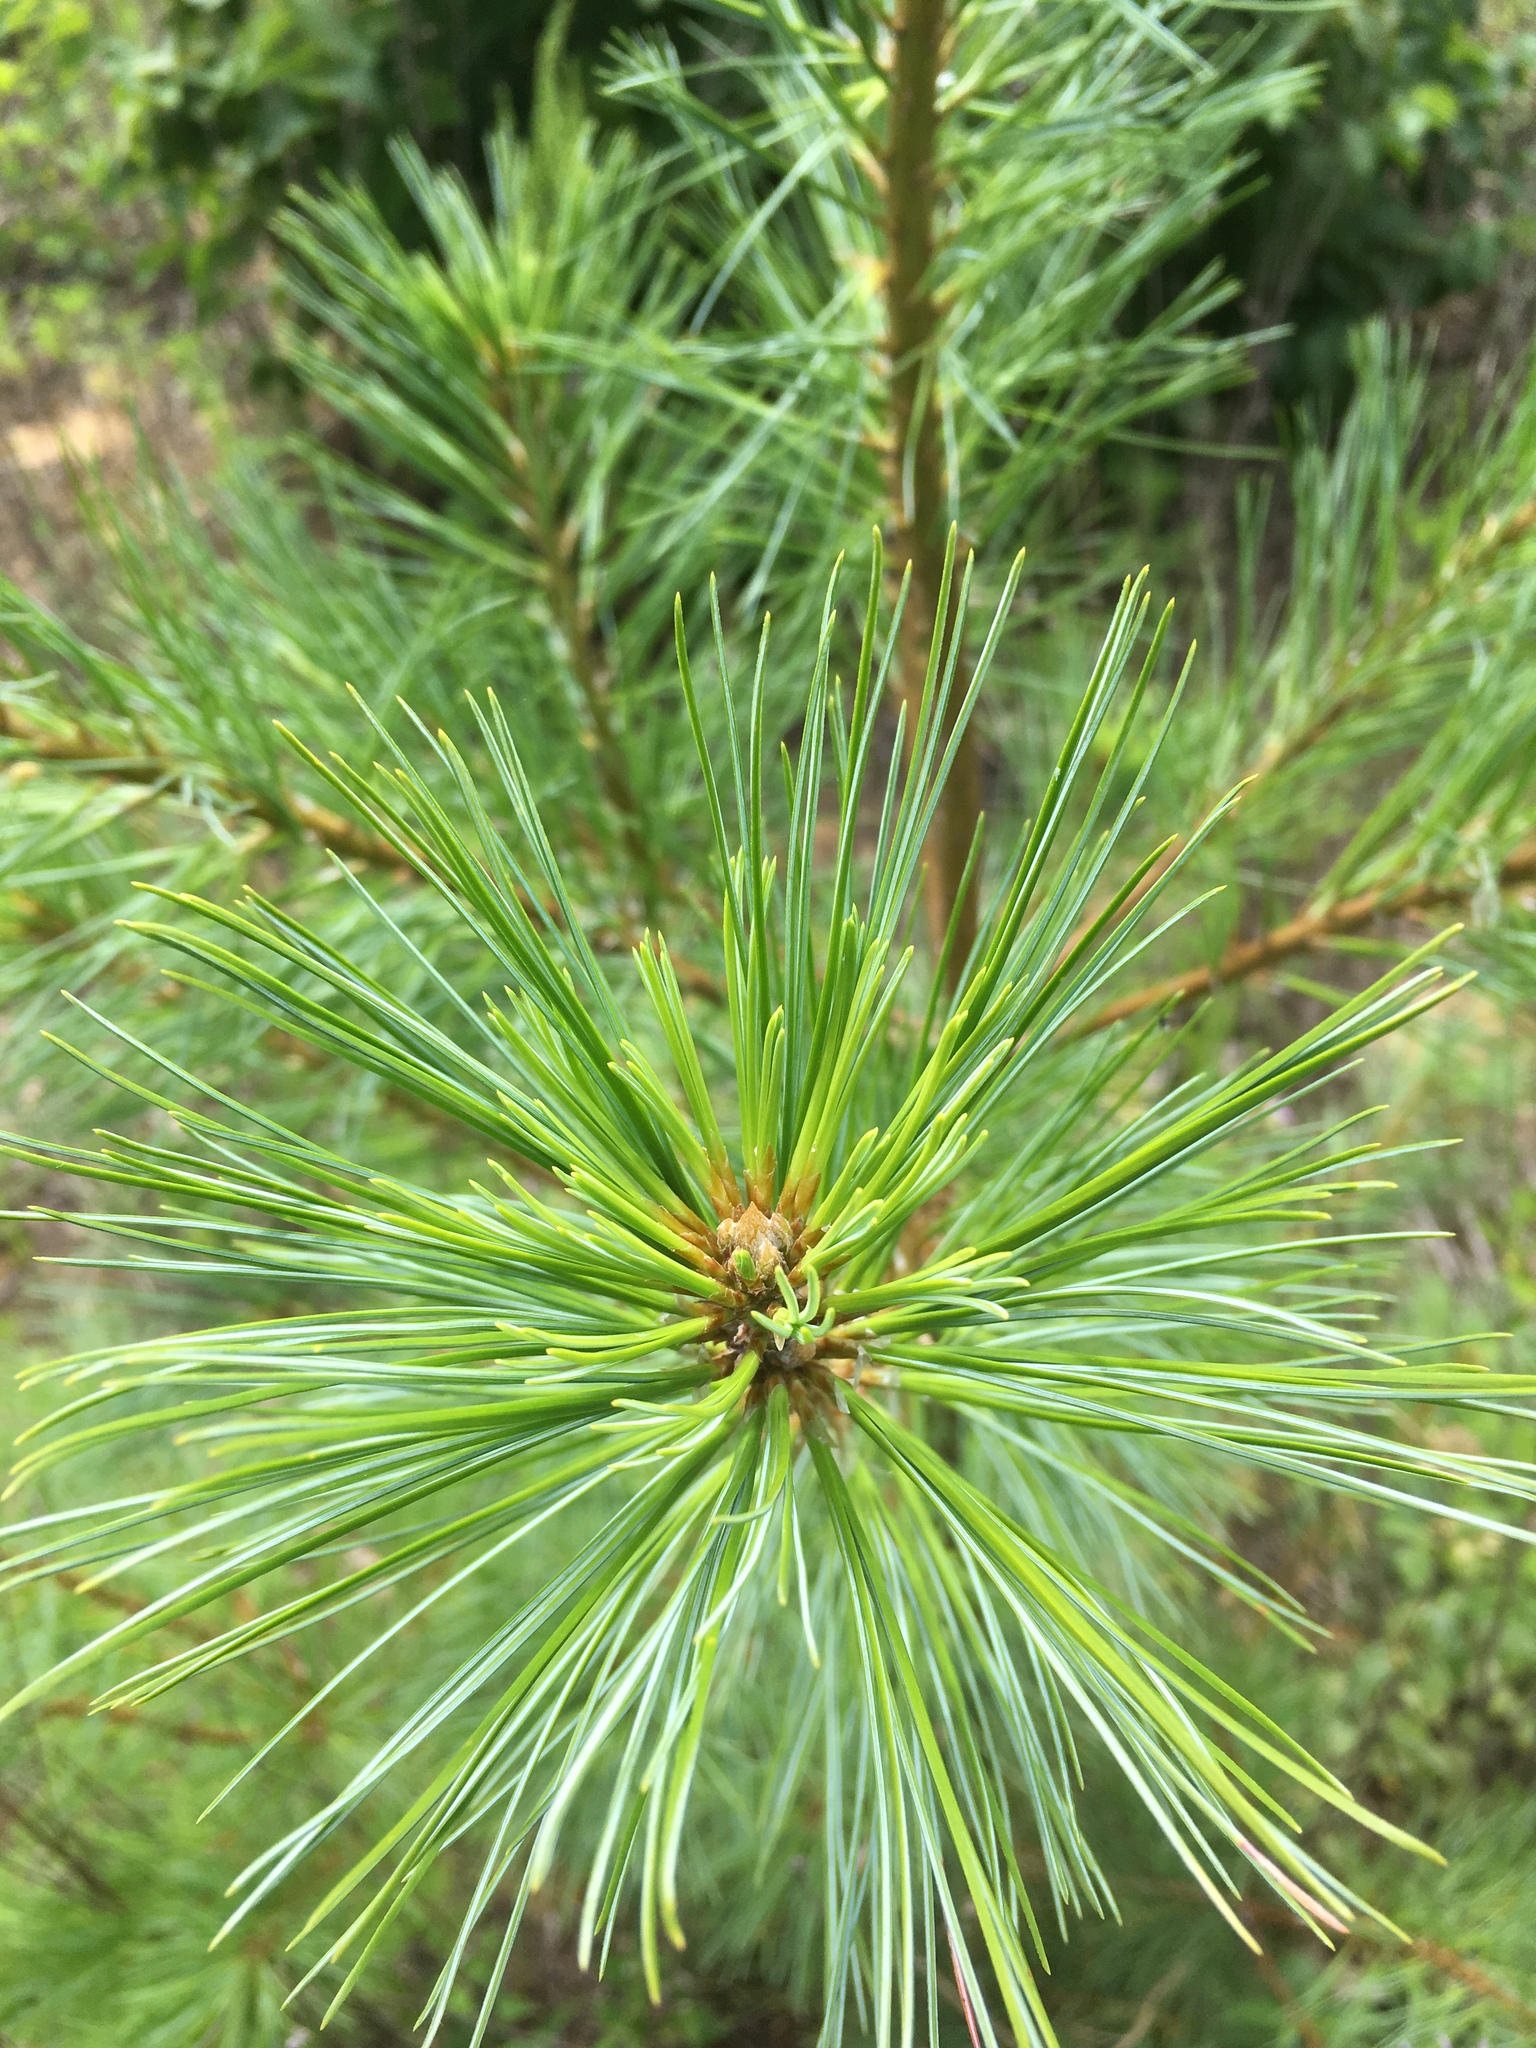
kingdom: Plantae
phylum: Tracheophyta
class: Pinopsida
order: Pinales
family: Pinaceae
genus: Pinus
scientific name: Pinus strobus
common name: Weymouth pine
